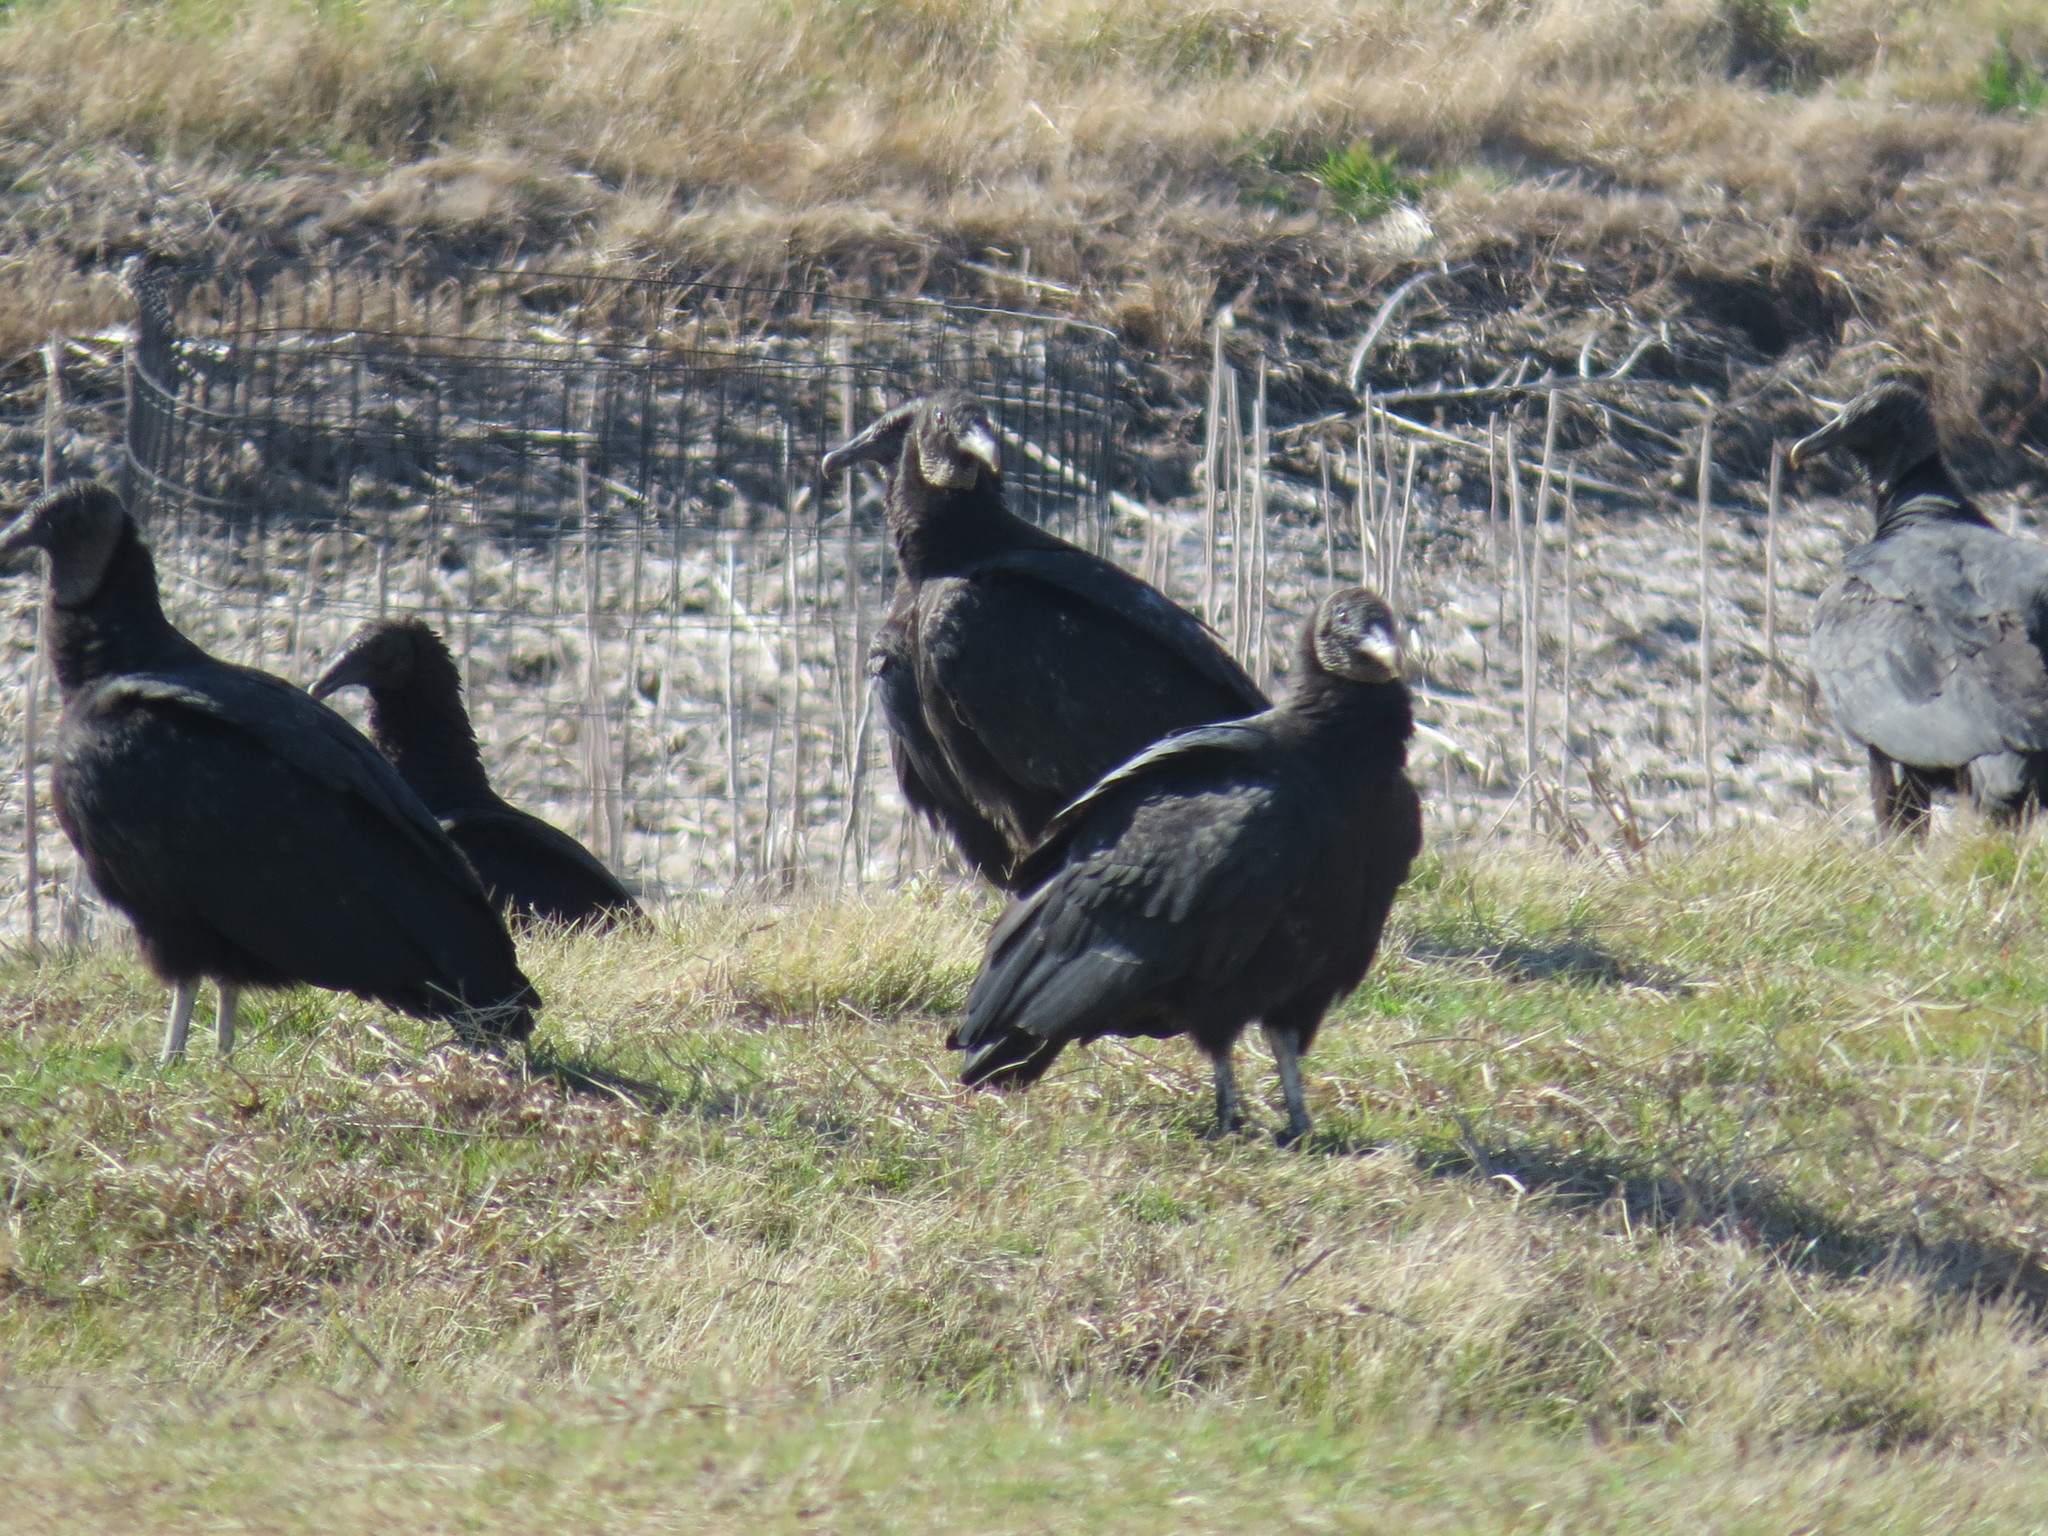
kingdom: Animalia
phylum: Chordata
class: Aves
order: Accipitriformes
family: Cathartidae
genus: Coragyps
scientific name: Coragyps atratus
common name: Black vulture
